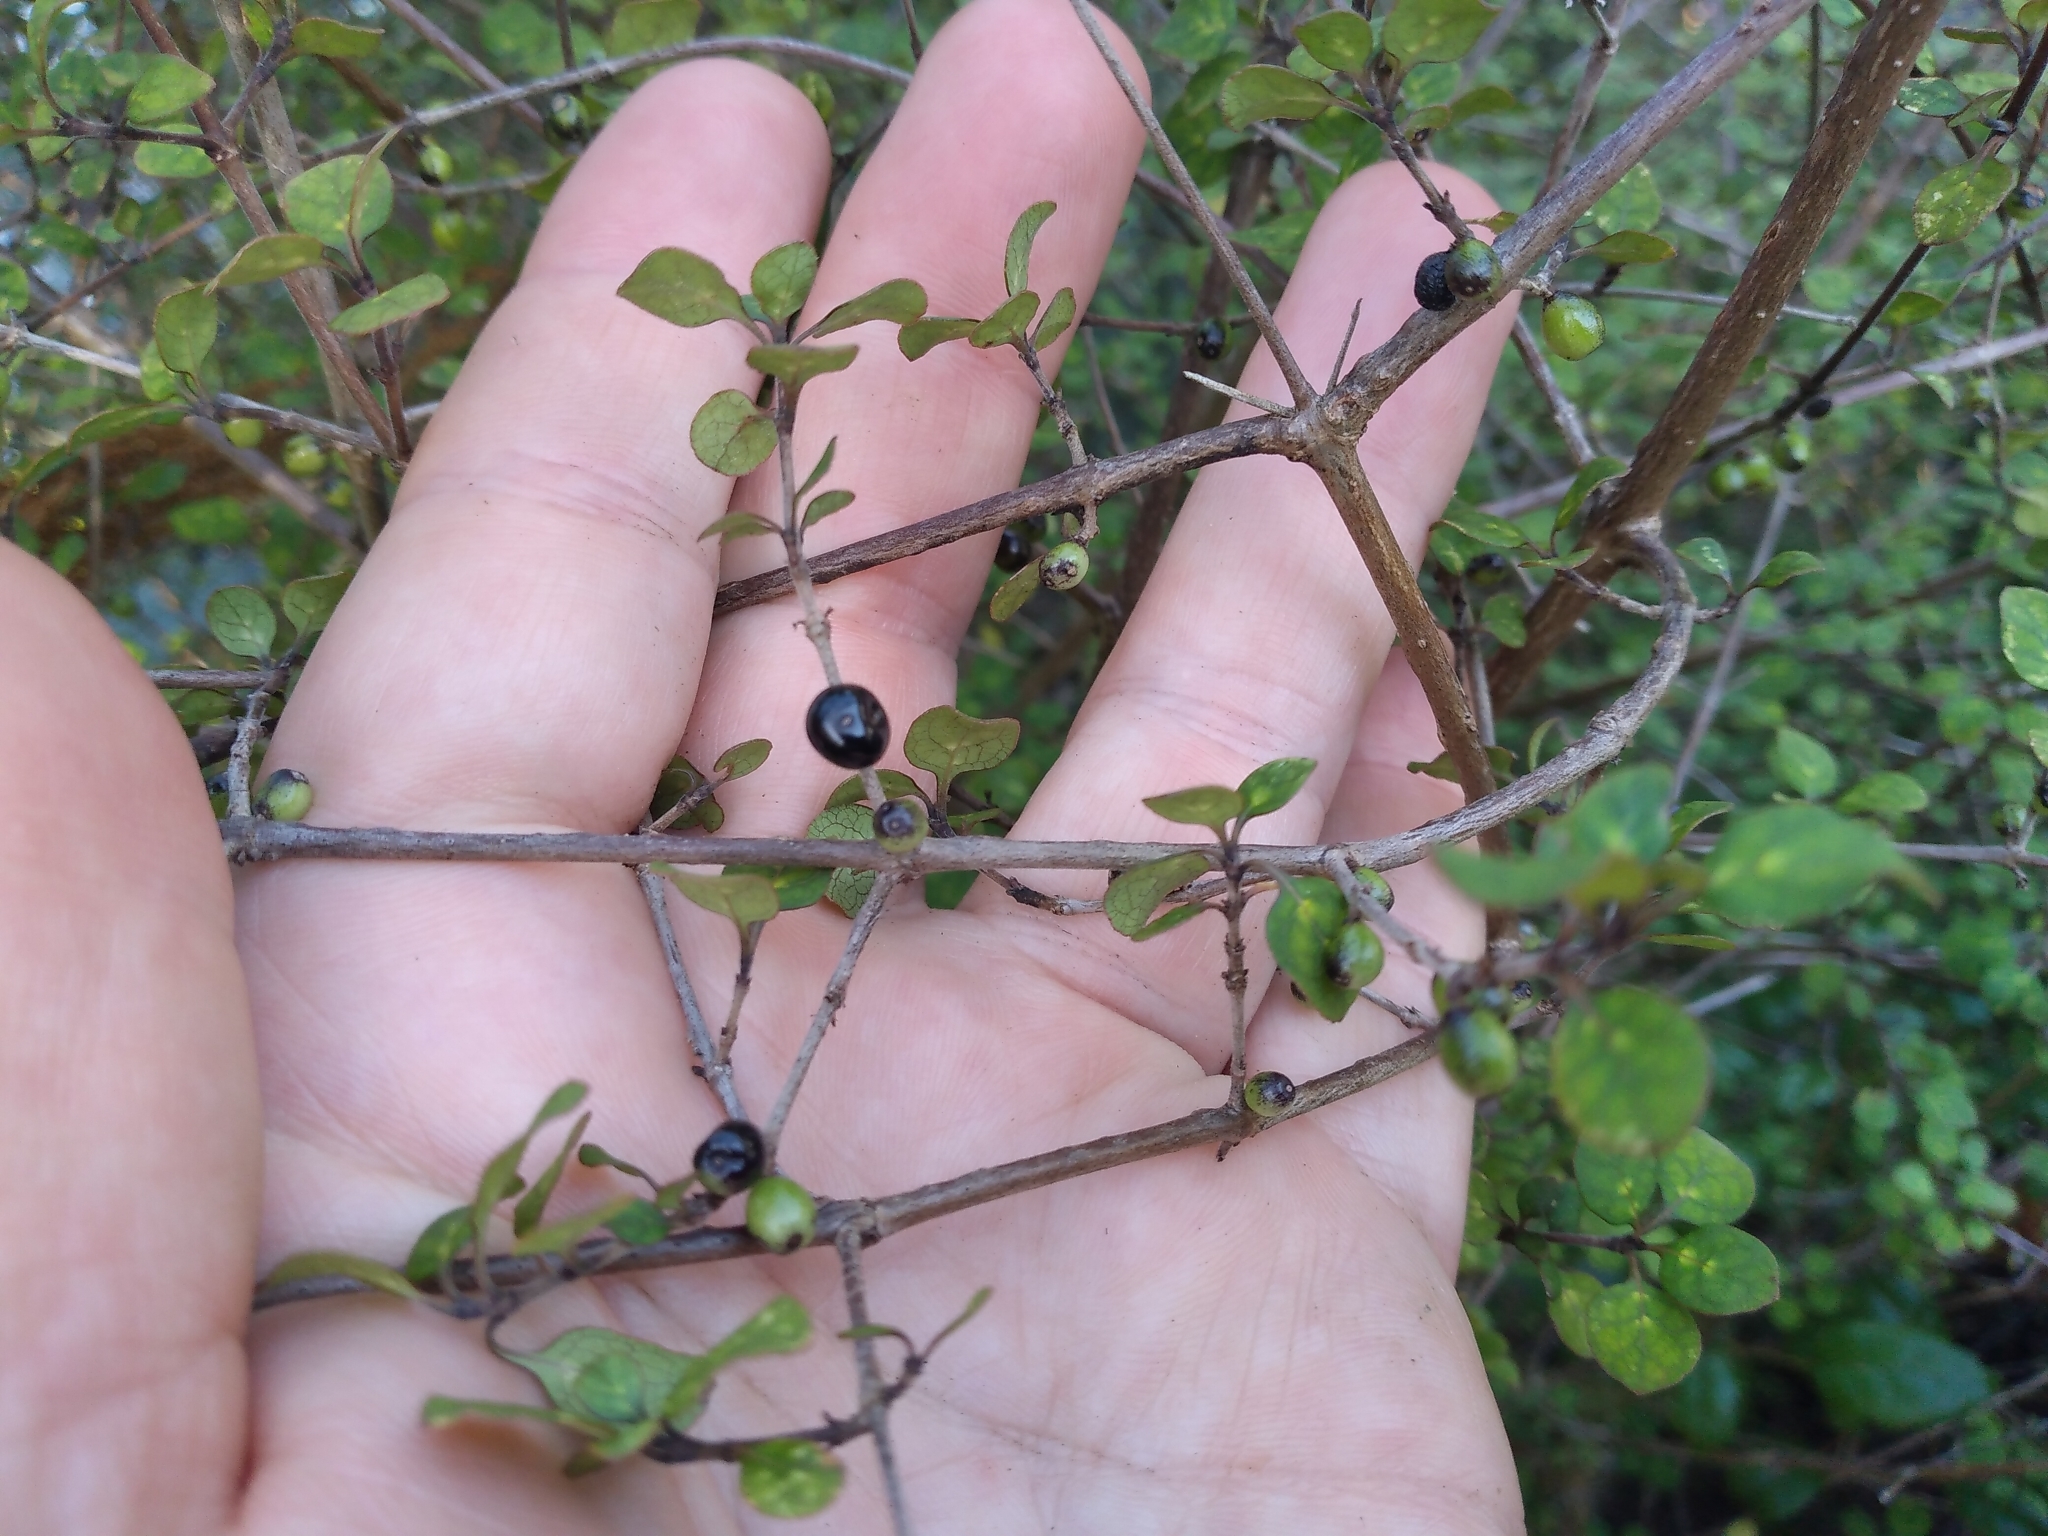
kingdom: Plantae
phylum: Tracheophyta
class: Magnoliopsida
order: Gentianales
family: Rubiaceae
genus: Coprosma
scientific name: Coprosma tenuicaulis
